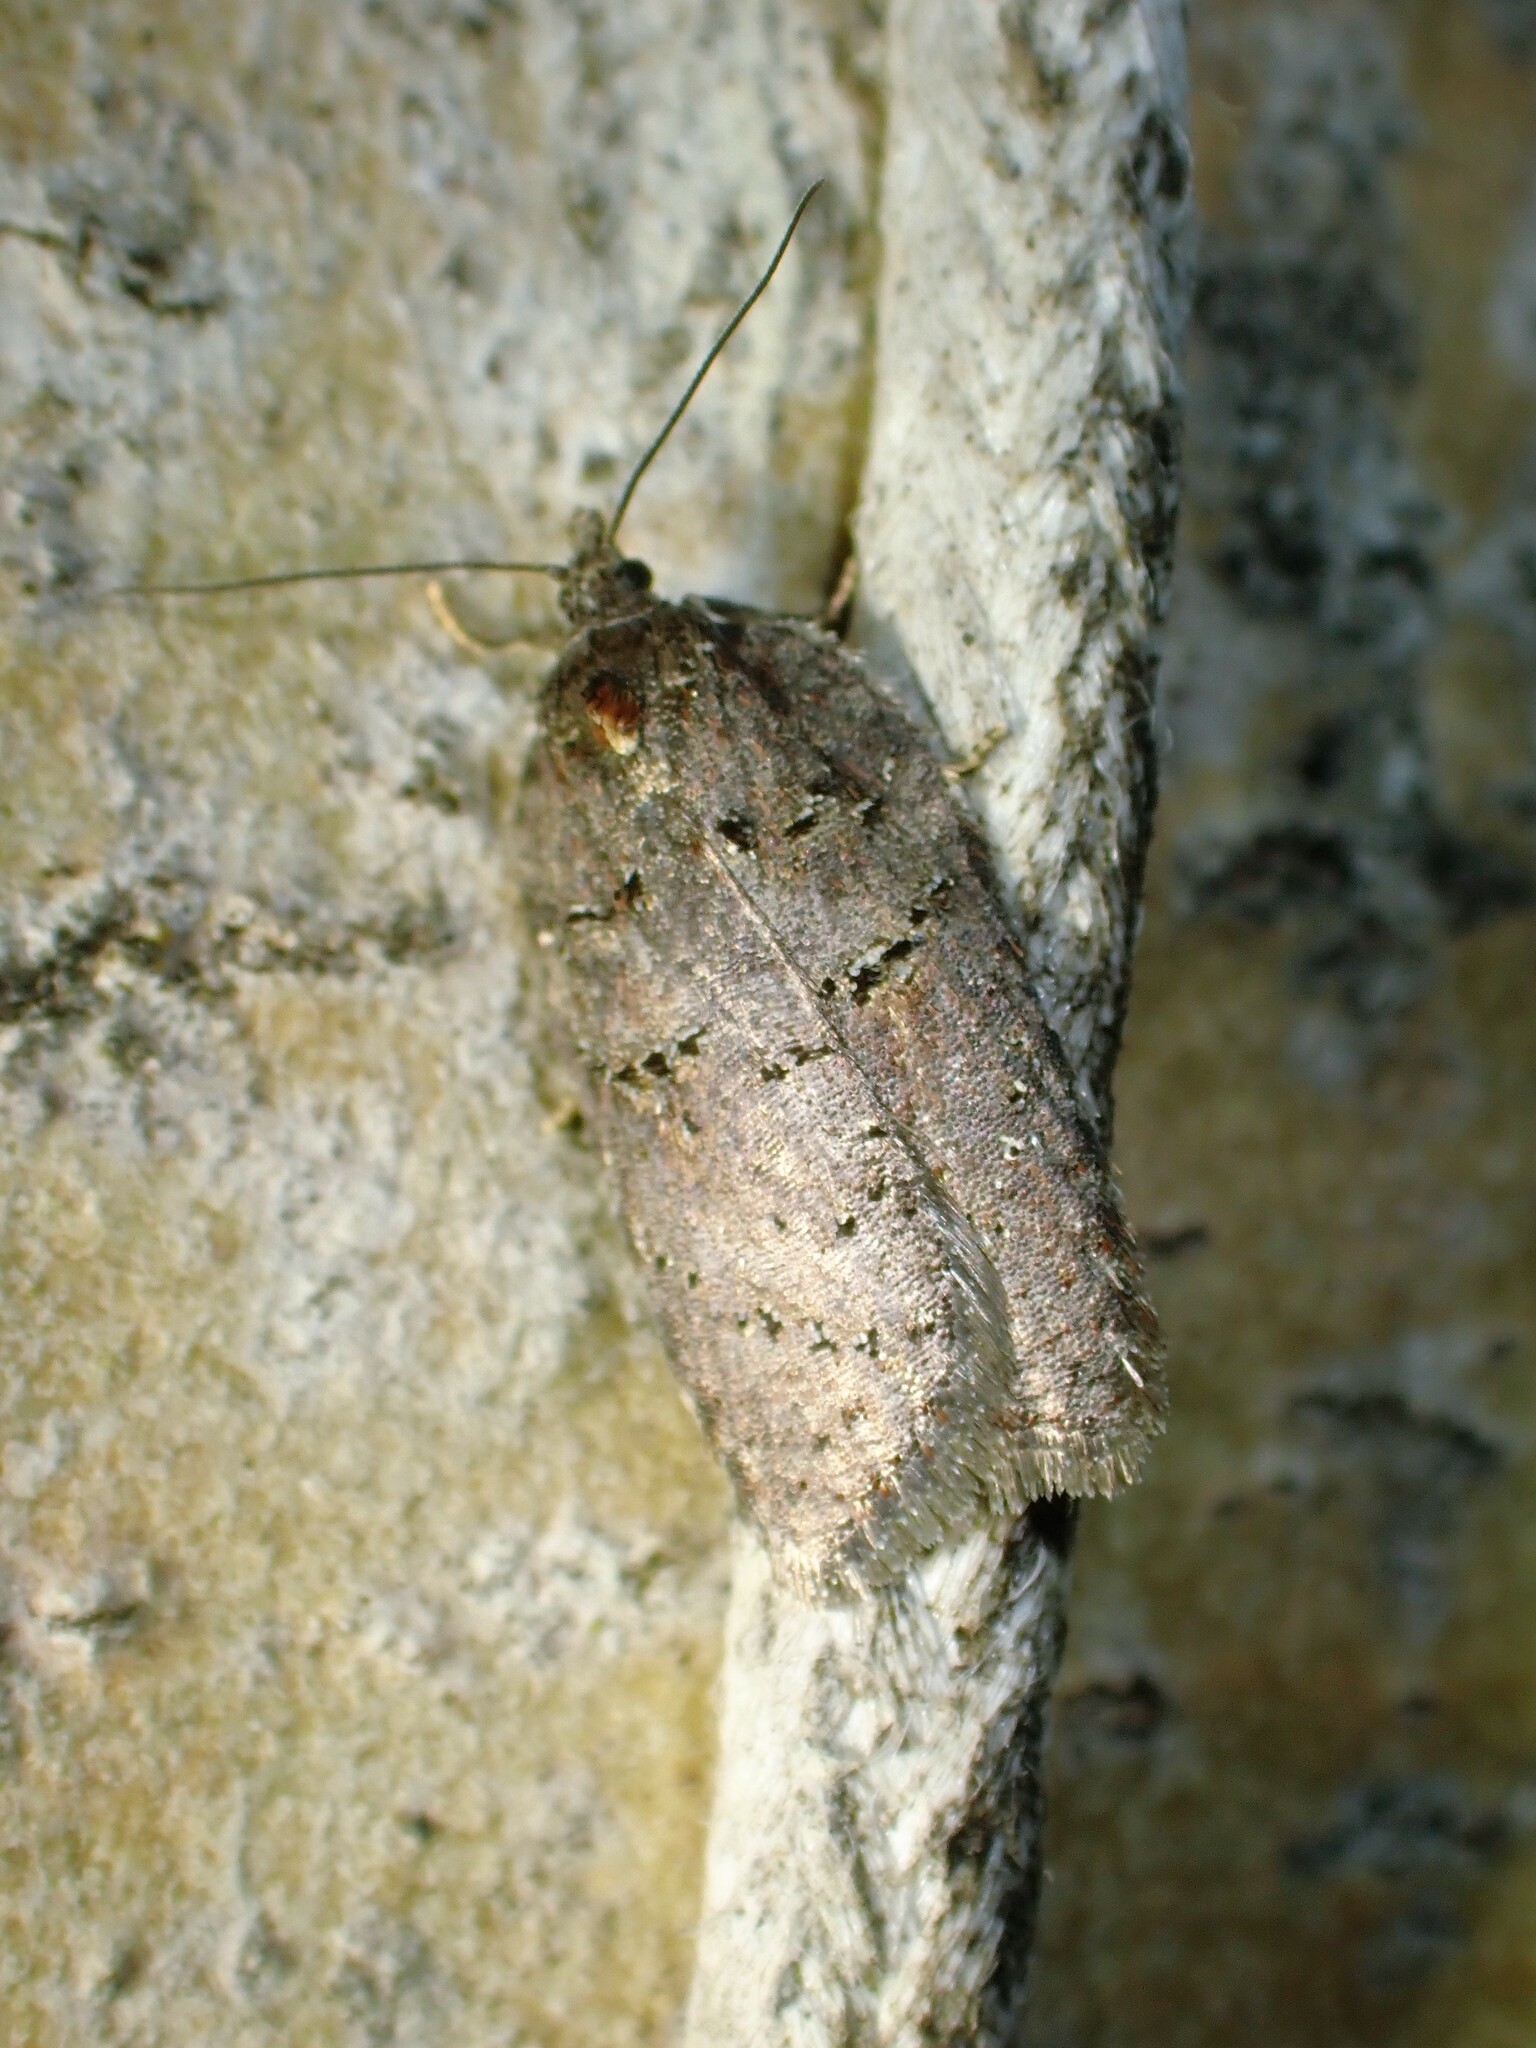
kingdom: Animalia
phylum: Arthropoda
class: Insecta
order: Lepidoptera
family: Tortricidae
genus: Acleris
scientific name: Acleris caliginosana
